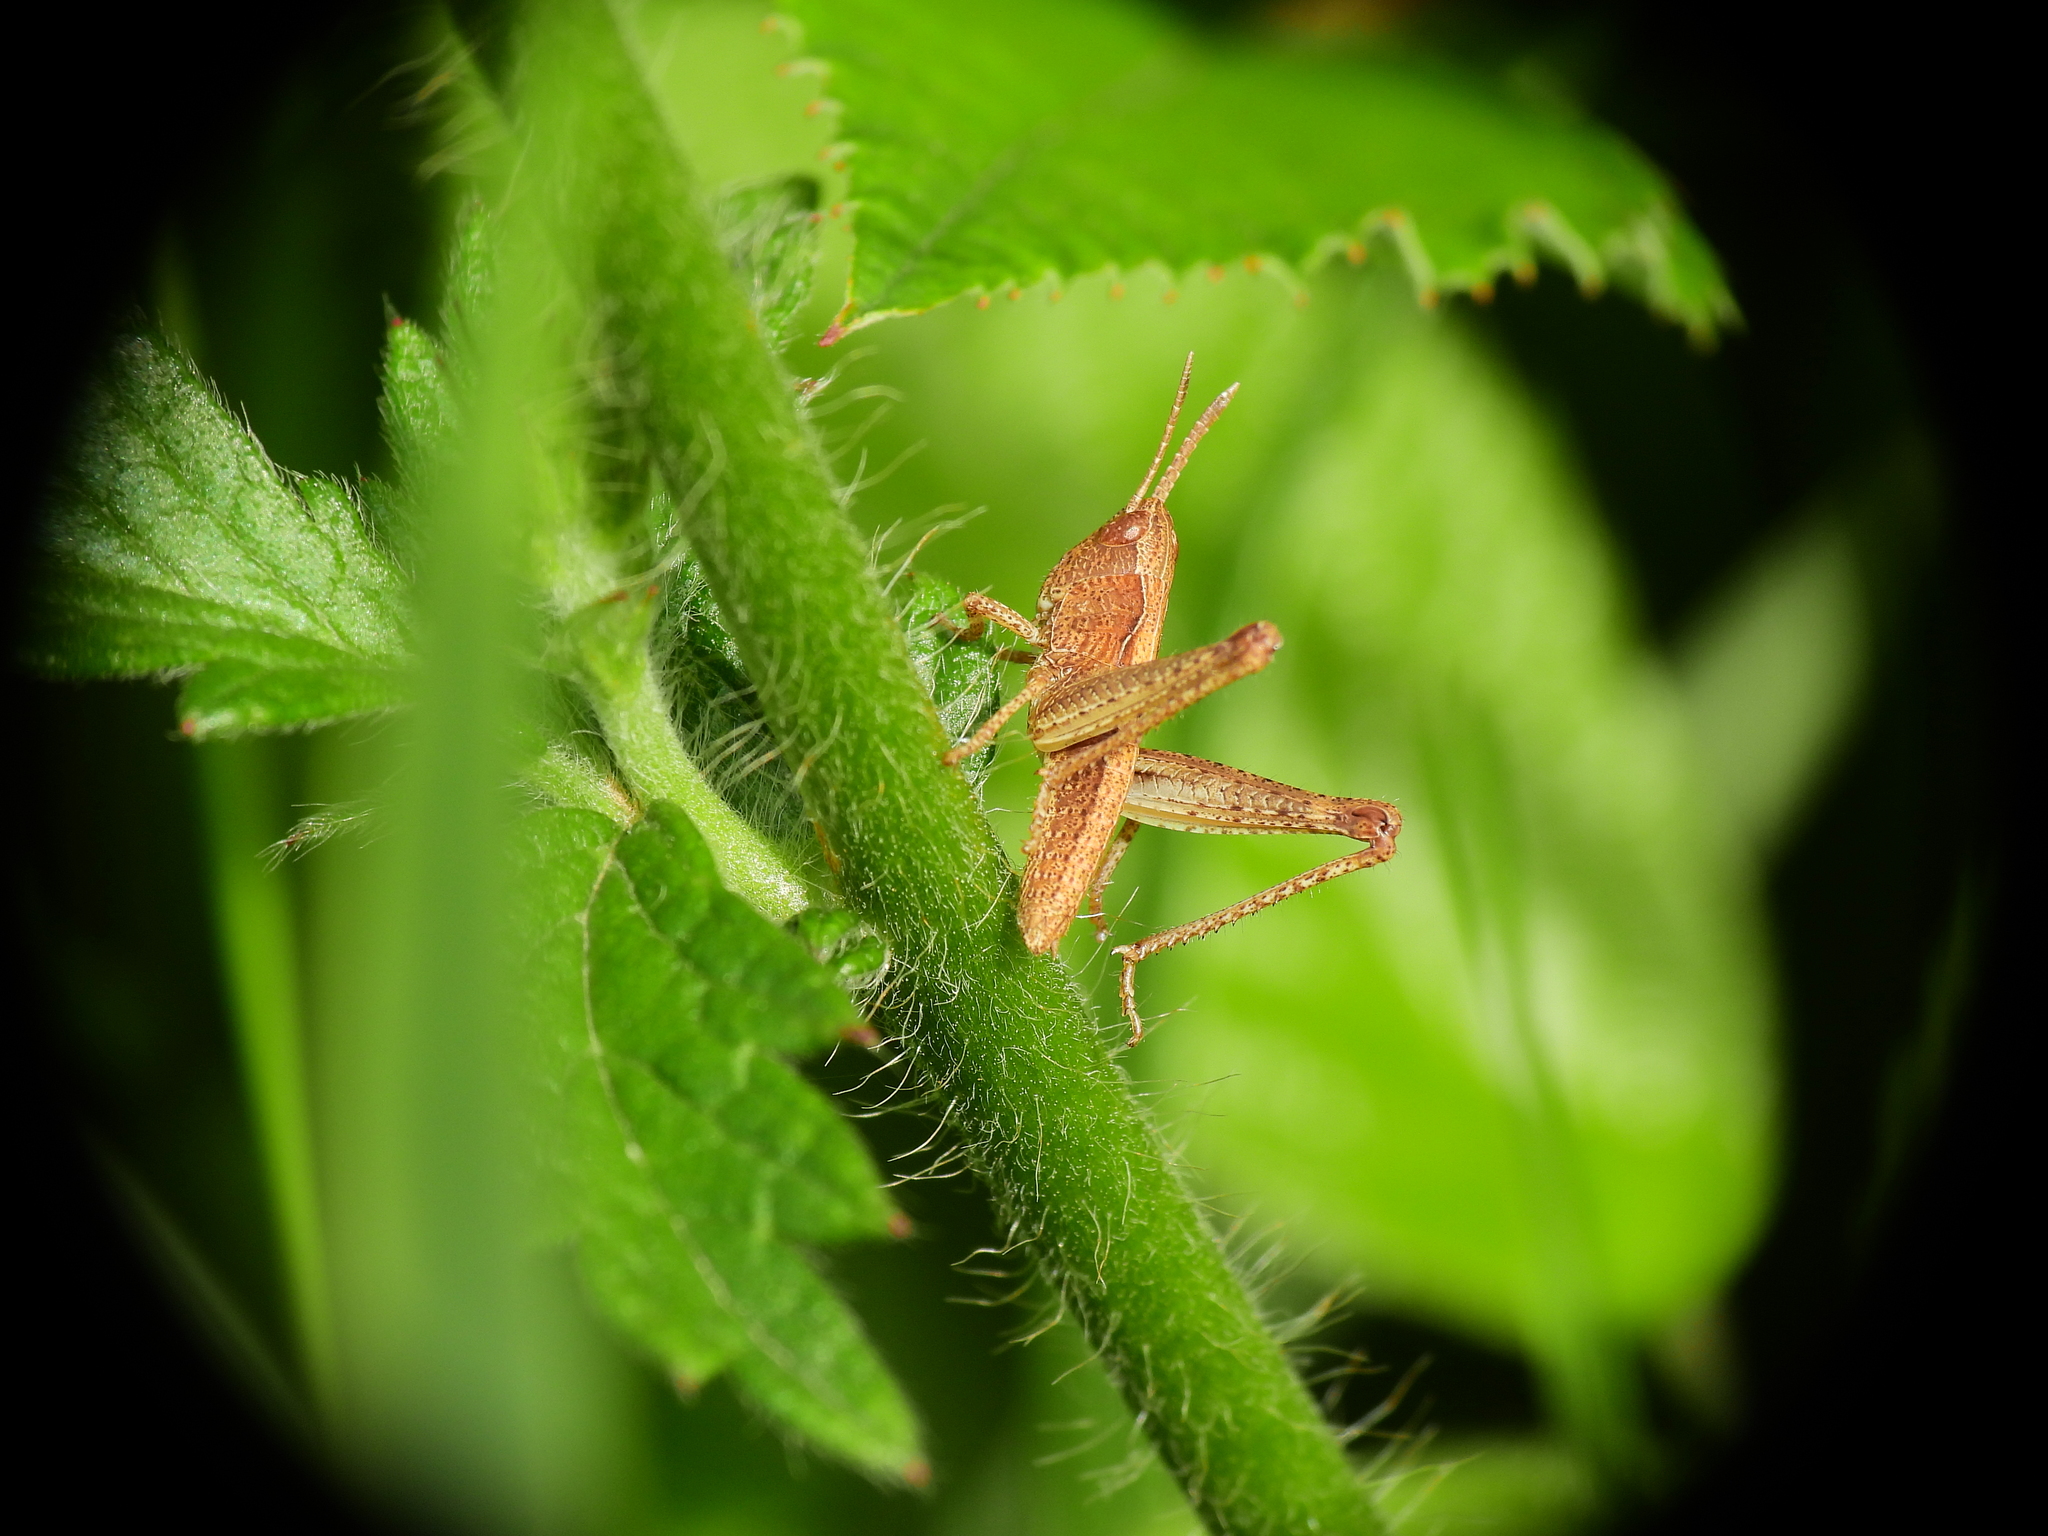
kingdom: Animalia
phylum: Arthropoda
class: Insecta
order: Orthoptera
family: Acrididae
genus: Gomphocerippus
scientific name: Gomphocerippus rufus
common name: Rufous grasshopper
